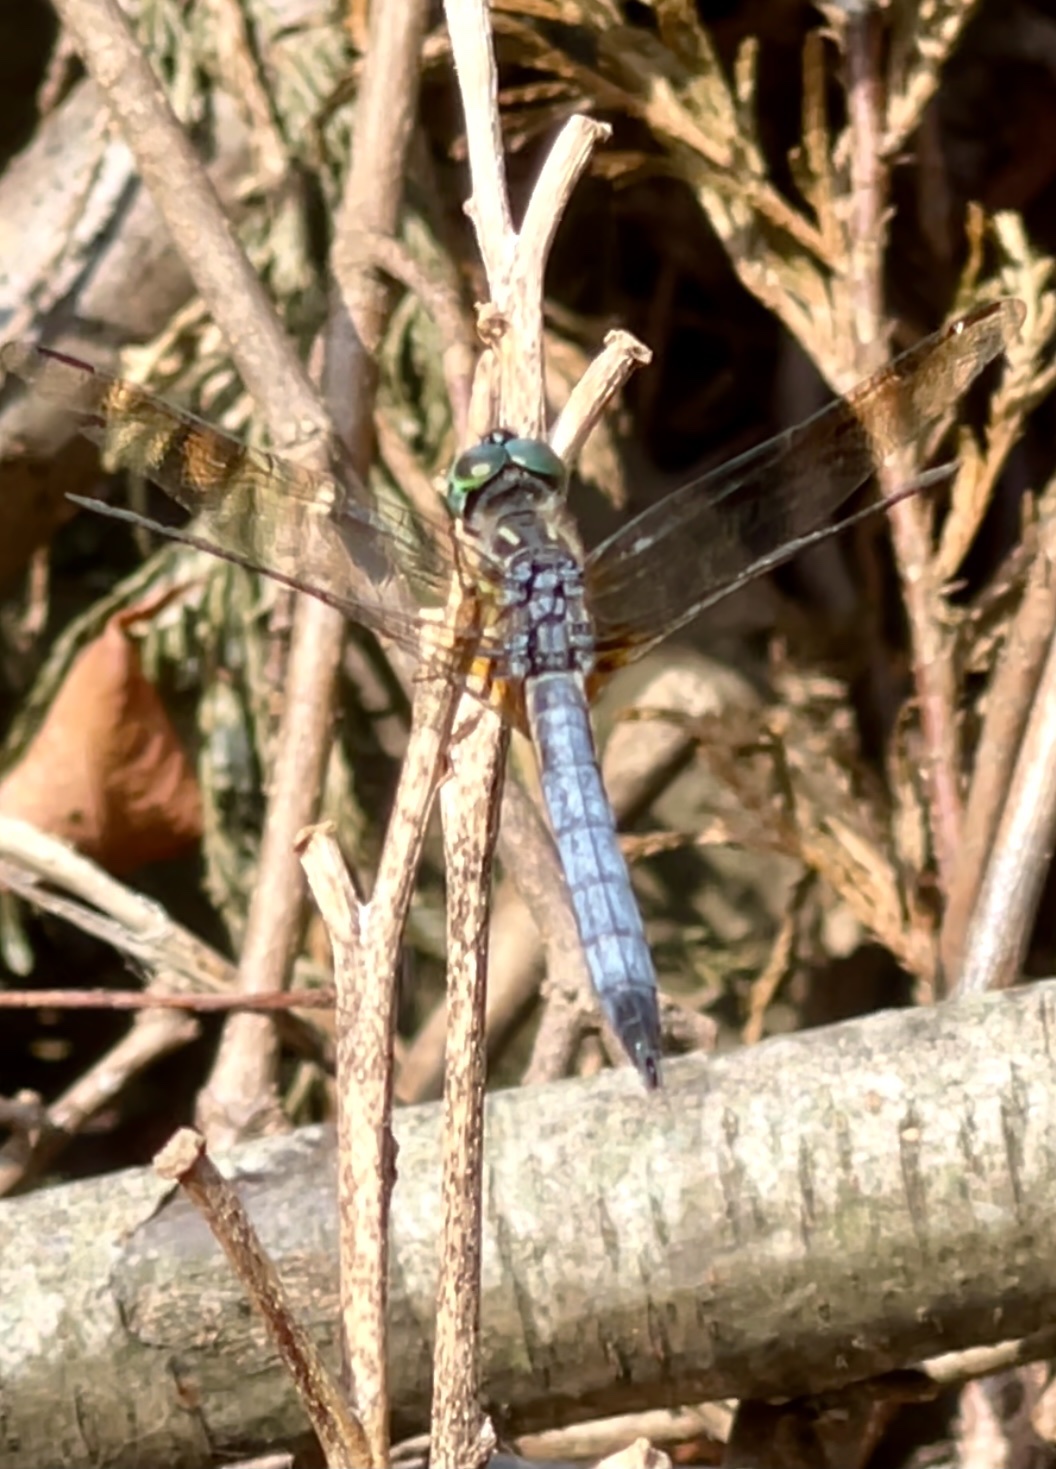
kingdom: Animalia
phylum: Arthropoda
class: Insecta
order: Odonata
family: Libellulidae
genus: Pachydiplax
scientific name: Pachydiplax longipennis
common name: Blue dasher
